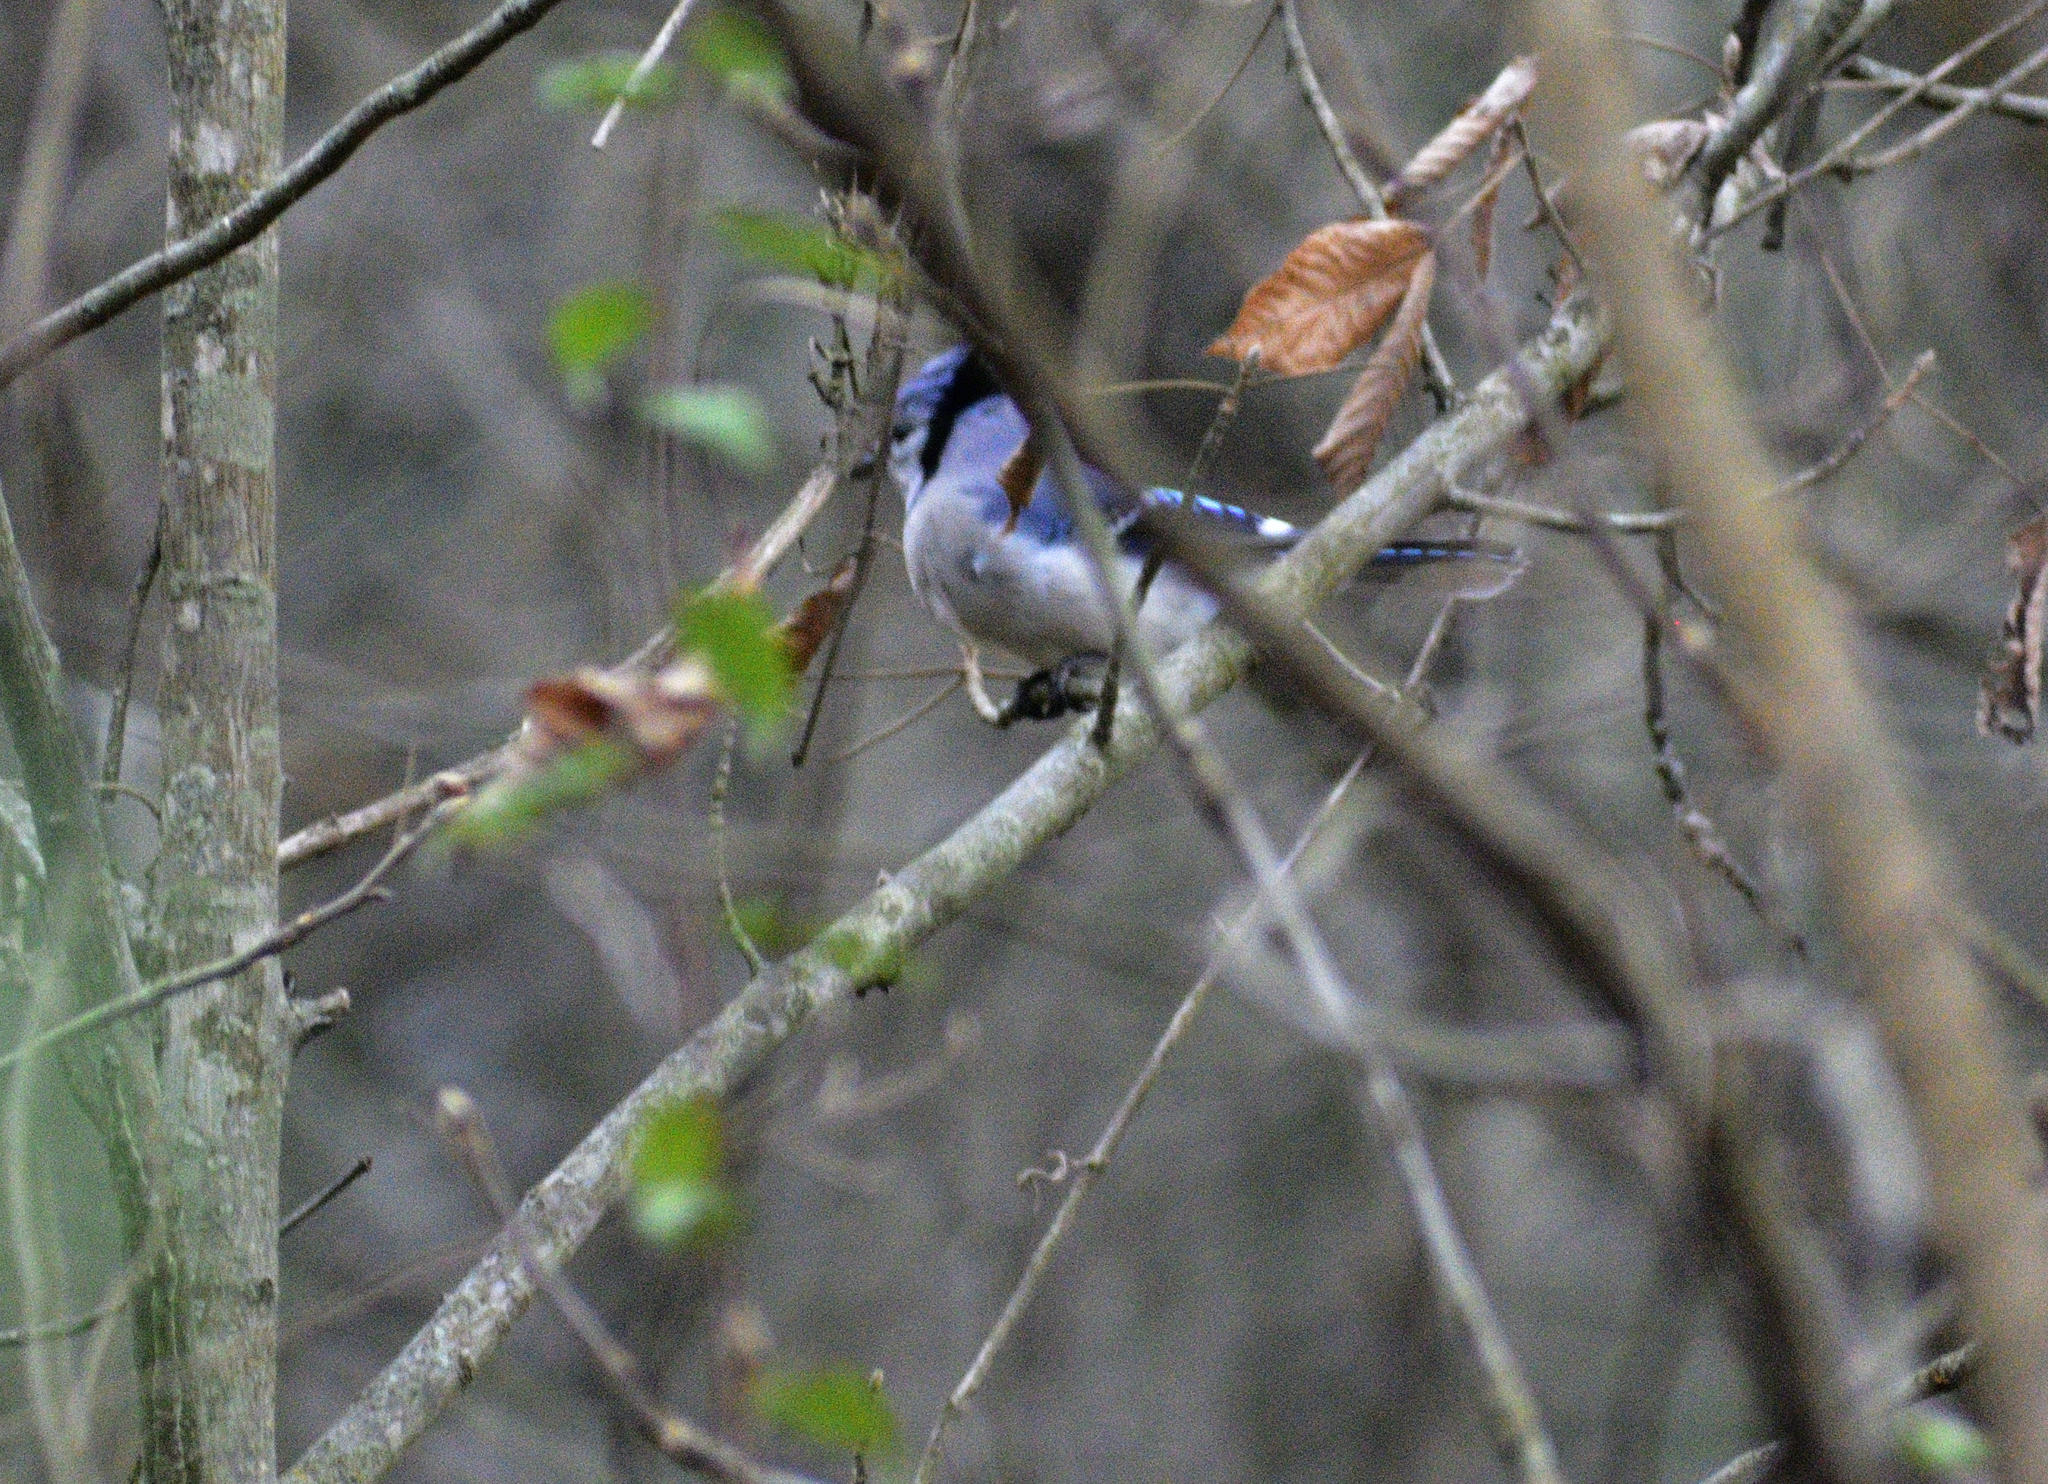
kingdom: Animalia
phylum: Chordata
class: Aves
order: Passeriformes
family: Corvidae
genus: Cyanocitta
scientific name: Cyanocitta cristata
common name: Blue jay
